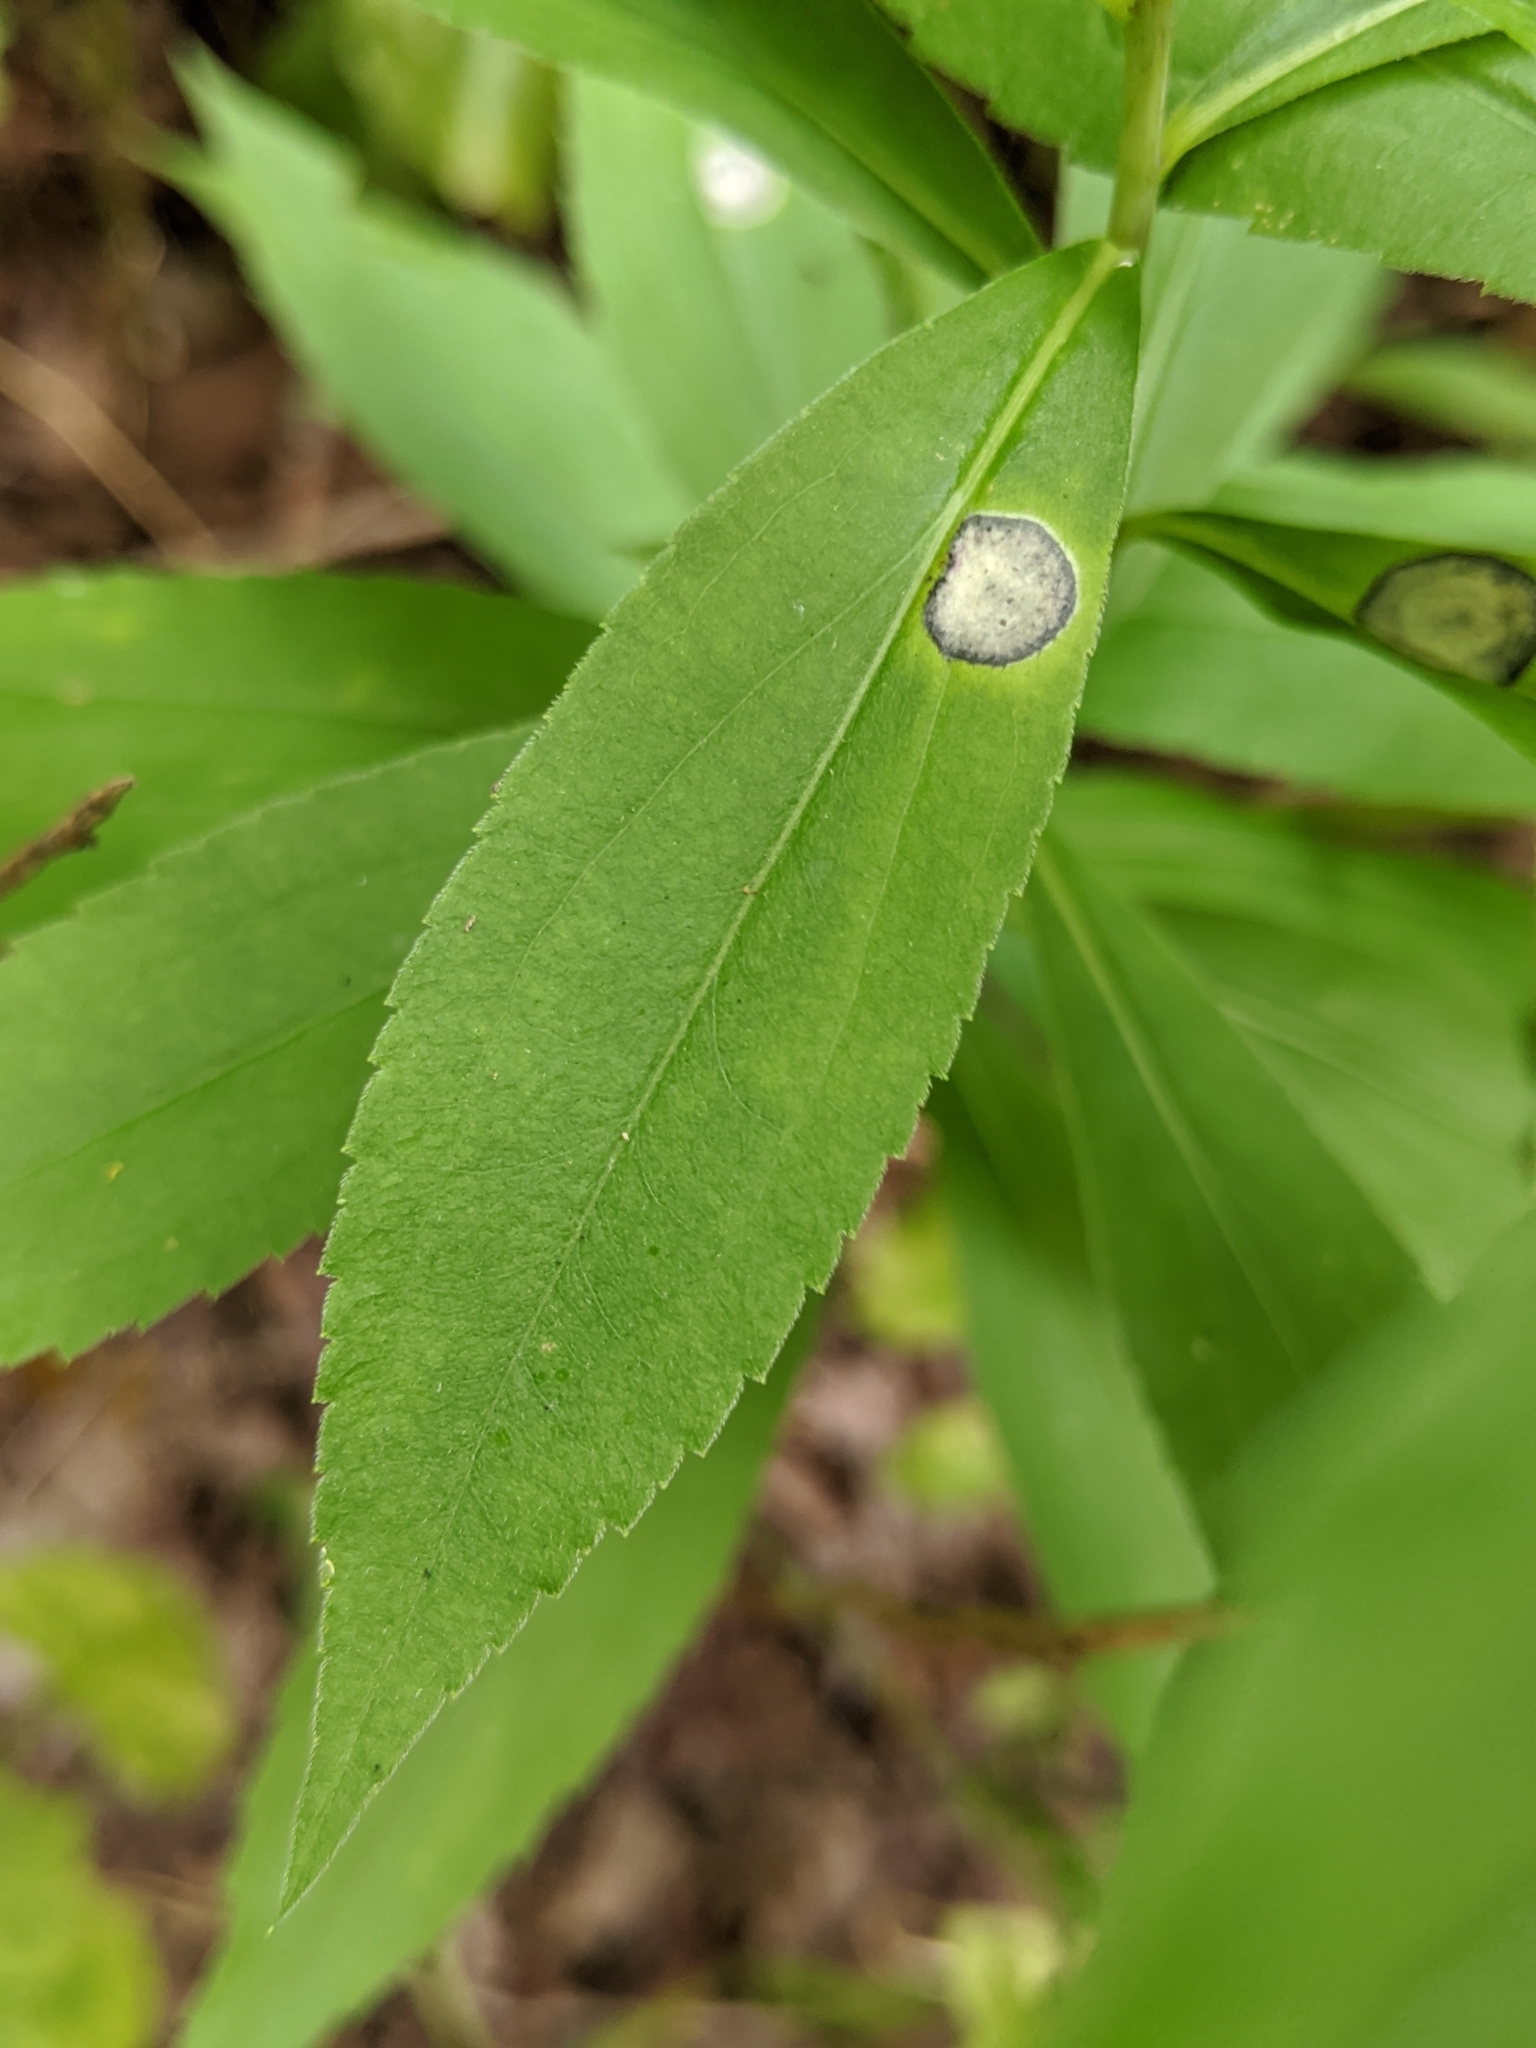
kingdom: Animalia
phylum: Arthropoda
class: Insecta
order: Diptera
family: Cecidomyiidae
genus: Asteromyia
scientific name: Asteromyia carbonifera
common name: Carbonifera goldenrod gall midge
